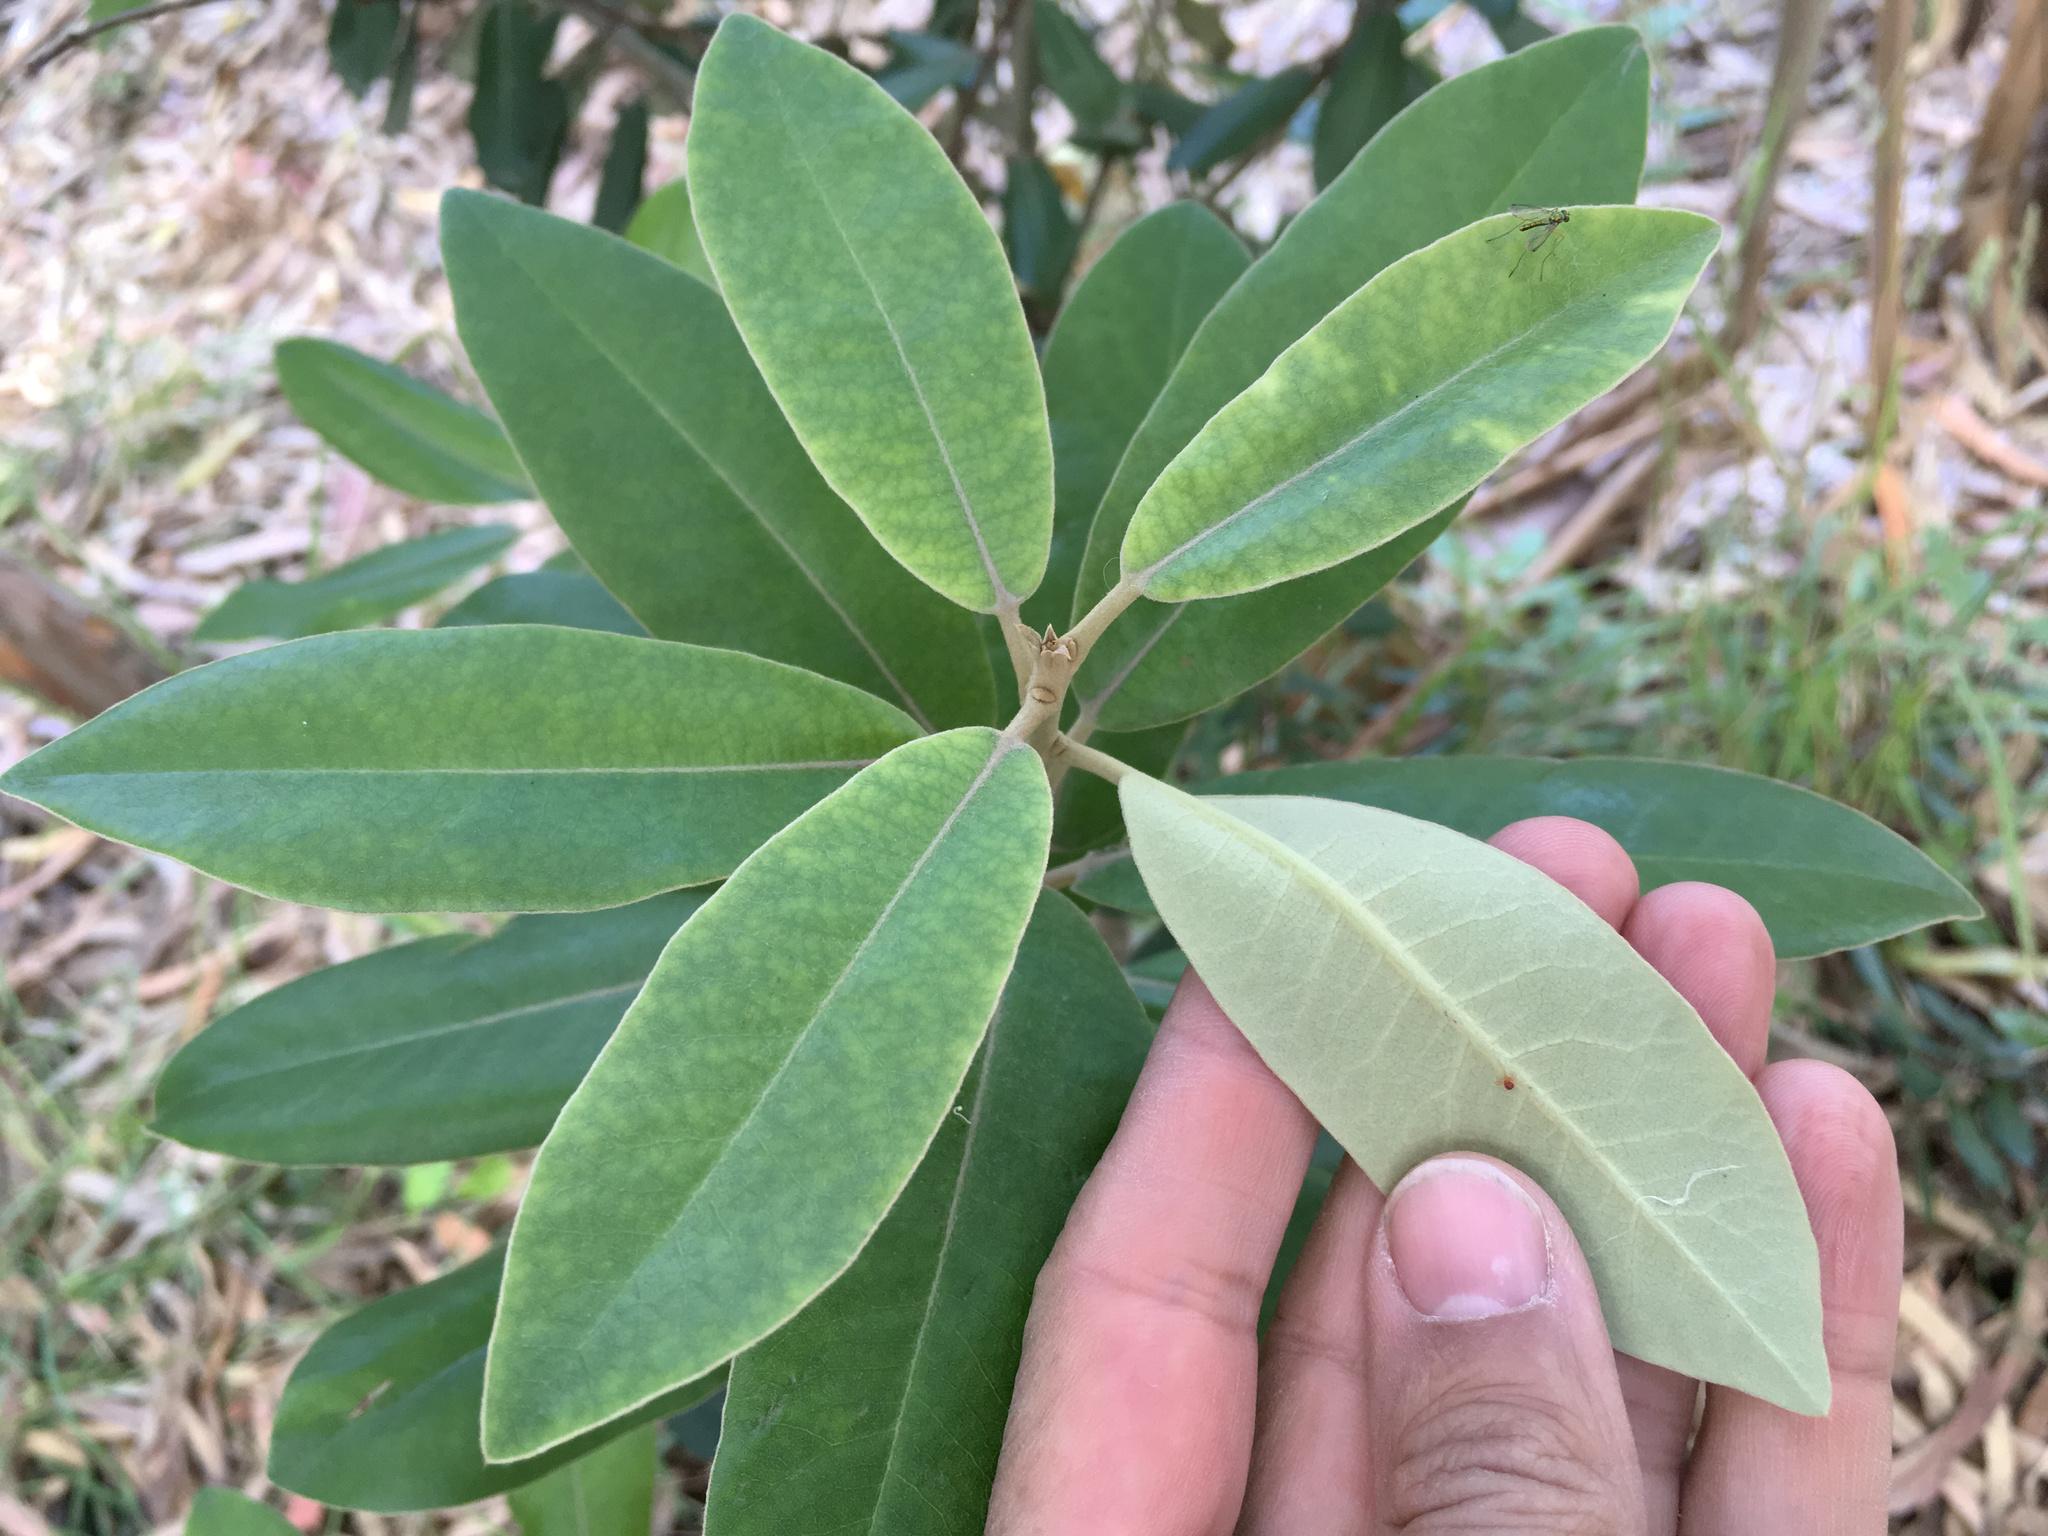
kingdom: Plantae
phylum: Tracheophyta
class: Magnoliopsida
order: Apiales
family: Pittosporaceae
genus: Pittosporum
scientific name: Pittosporum ralphii
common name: Ralph's desertwillow
